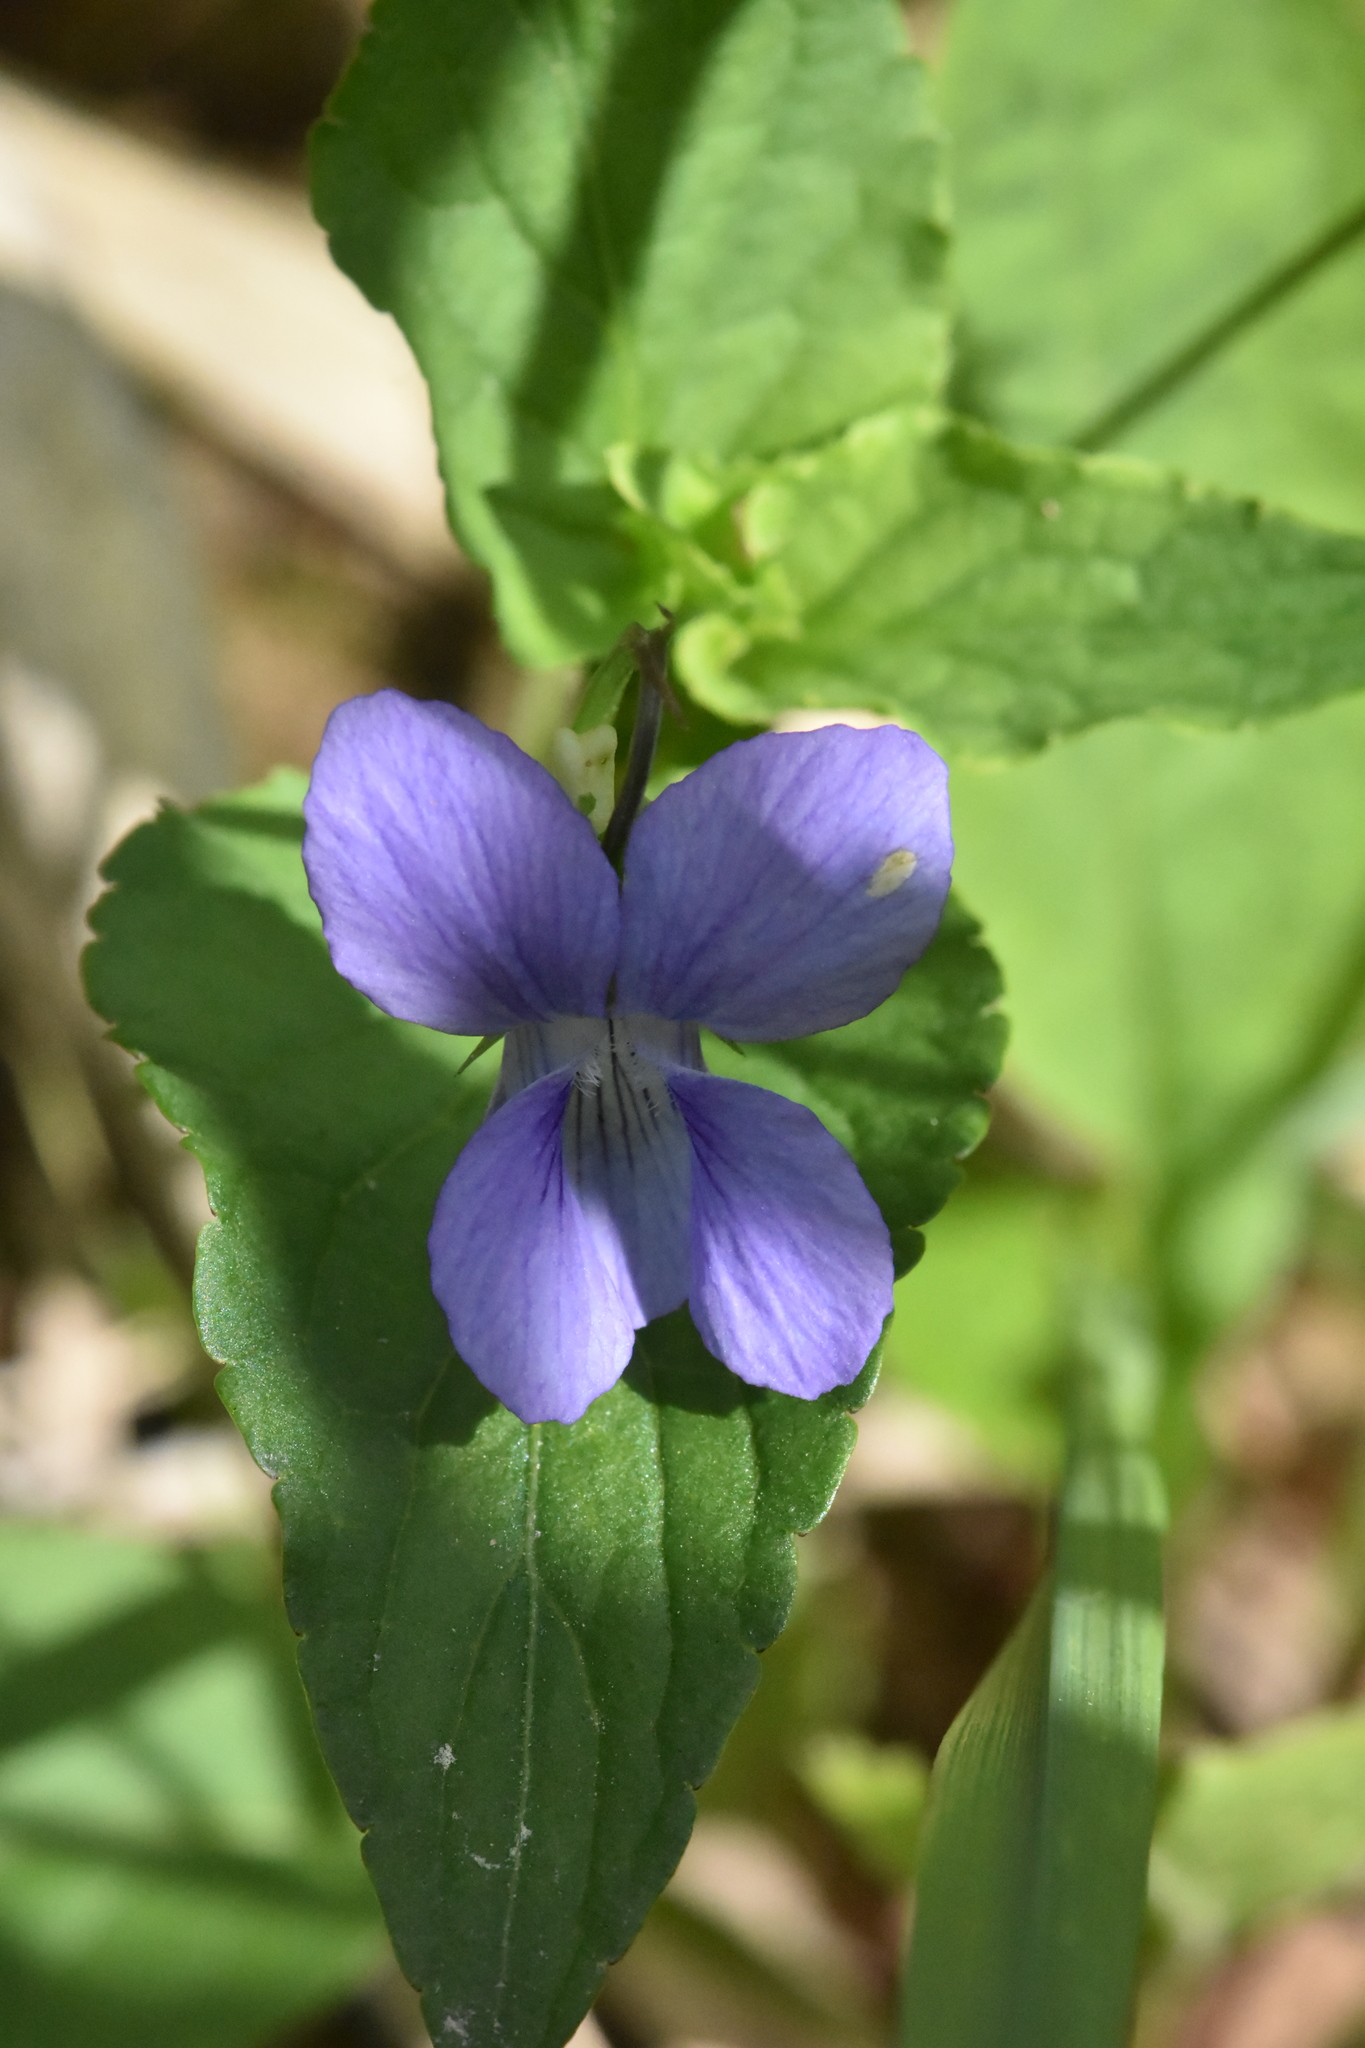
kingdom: Plantae
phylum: Tracheophyta
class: Magnoliopsida
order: Malpighiales
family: Violaceae
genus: Viola
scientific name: Viola
